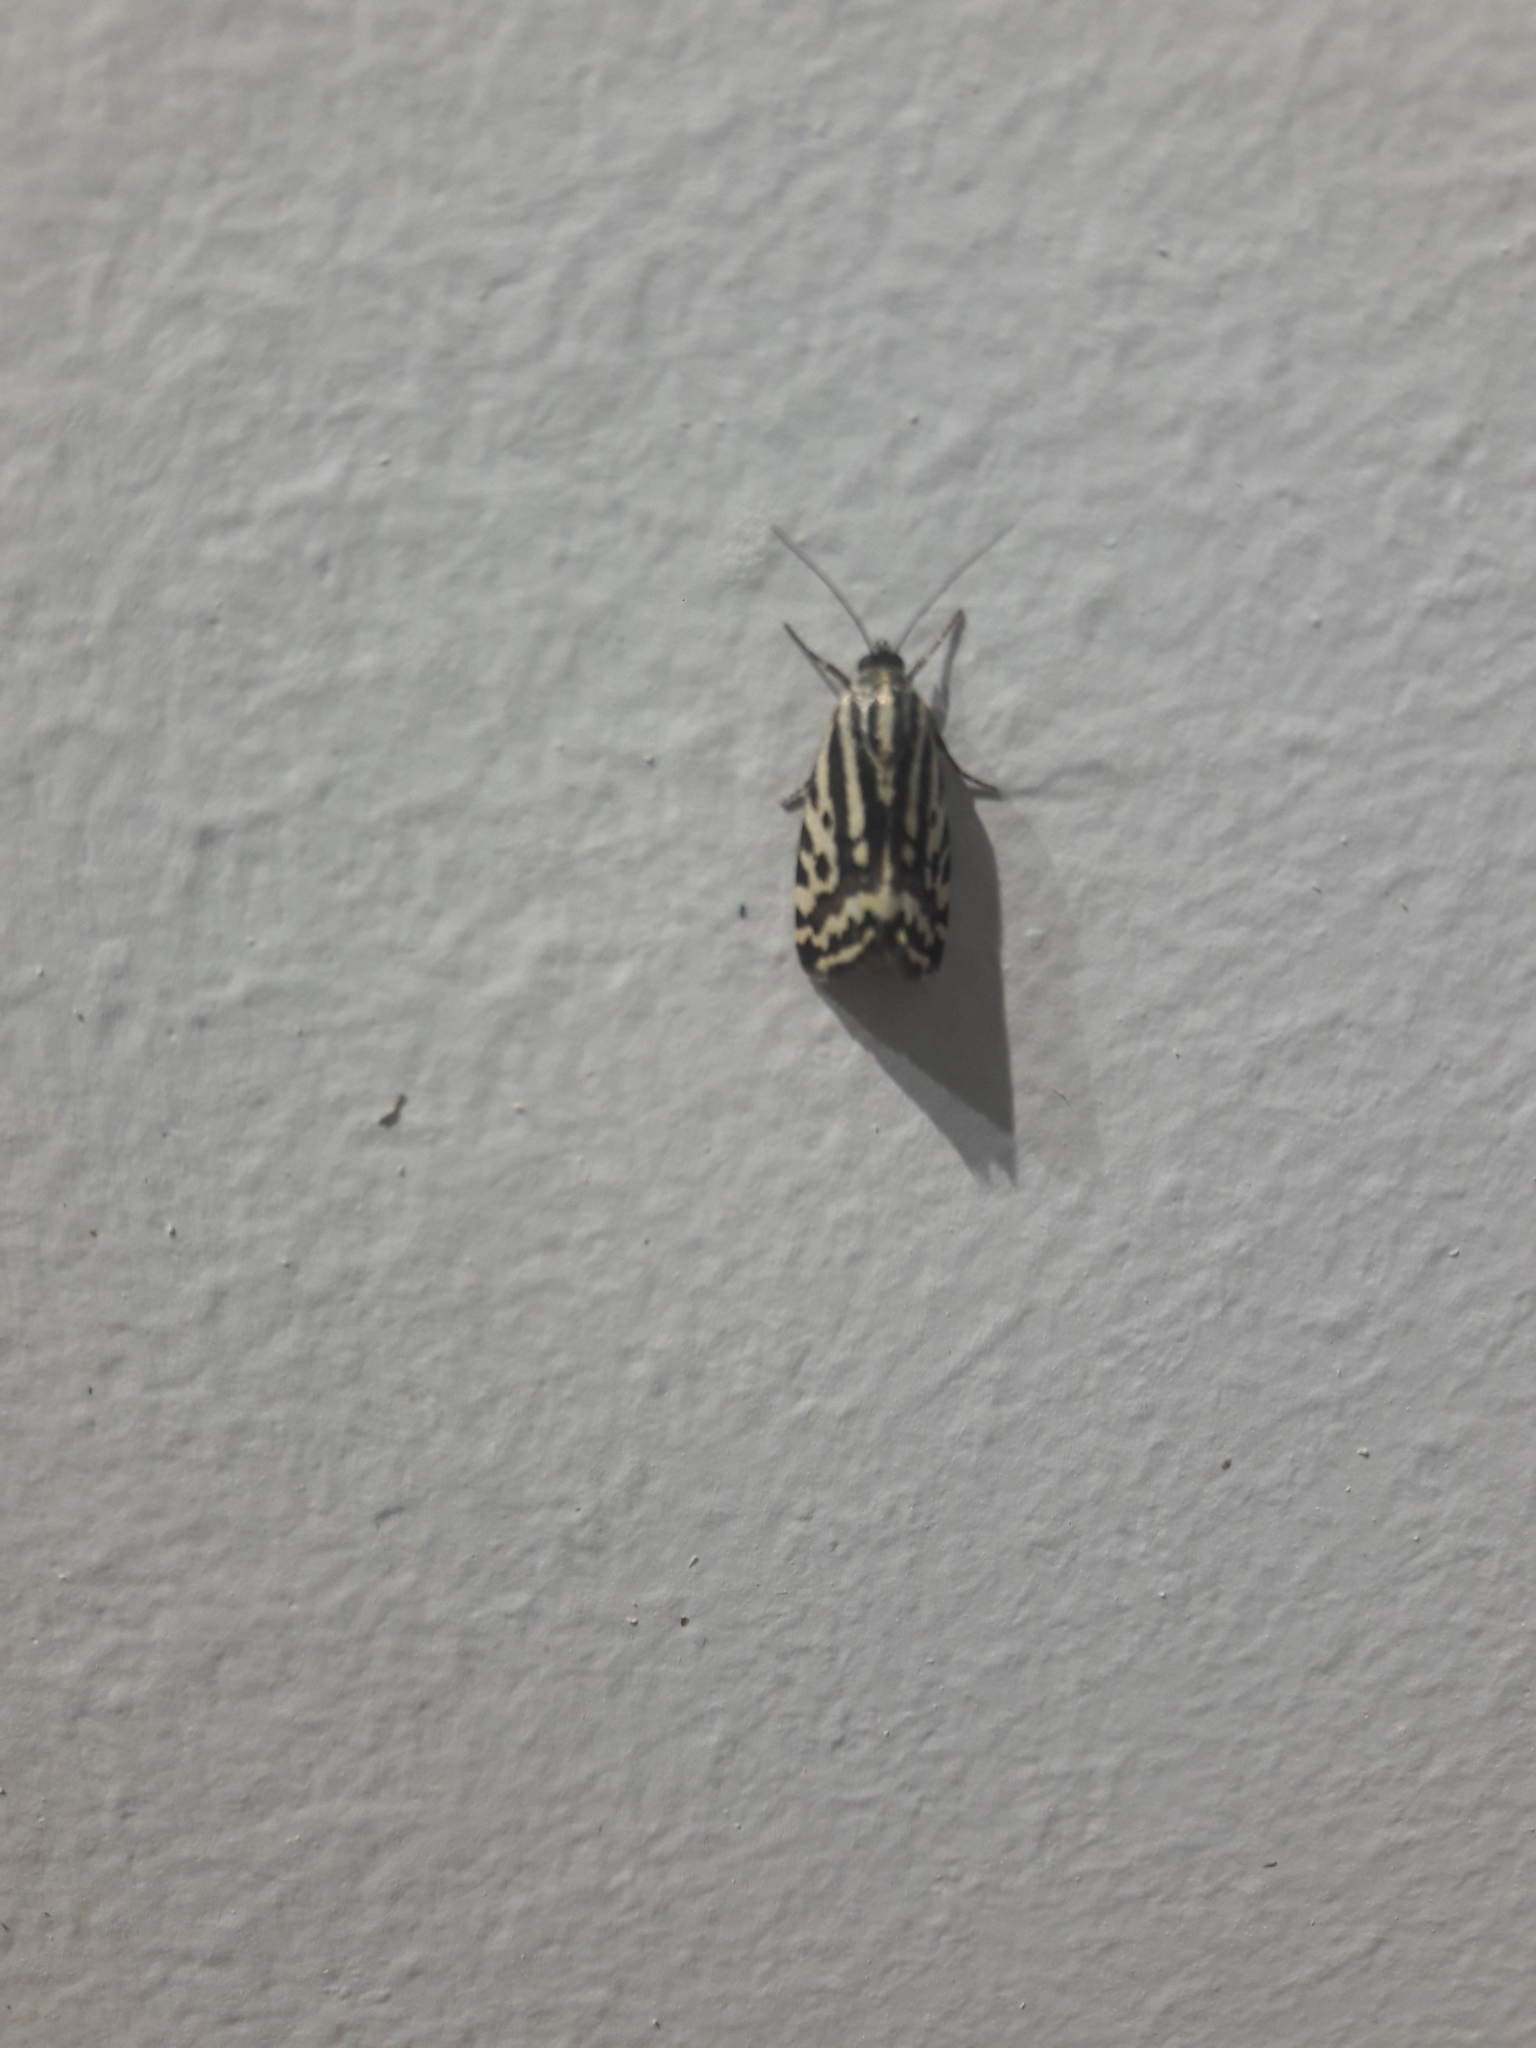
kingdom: Animalia
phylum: Arthropoda
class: Insecta
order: Lepidoptera
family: Noctuidae
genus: Acontia
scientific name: Acontia trabealis
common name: Spotted sulphur
